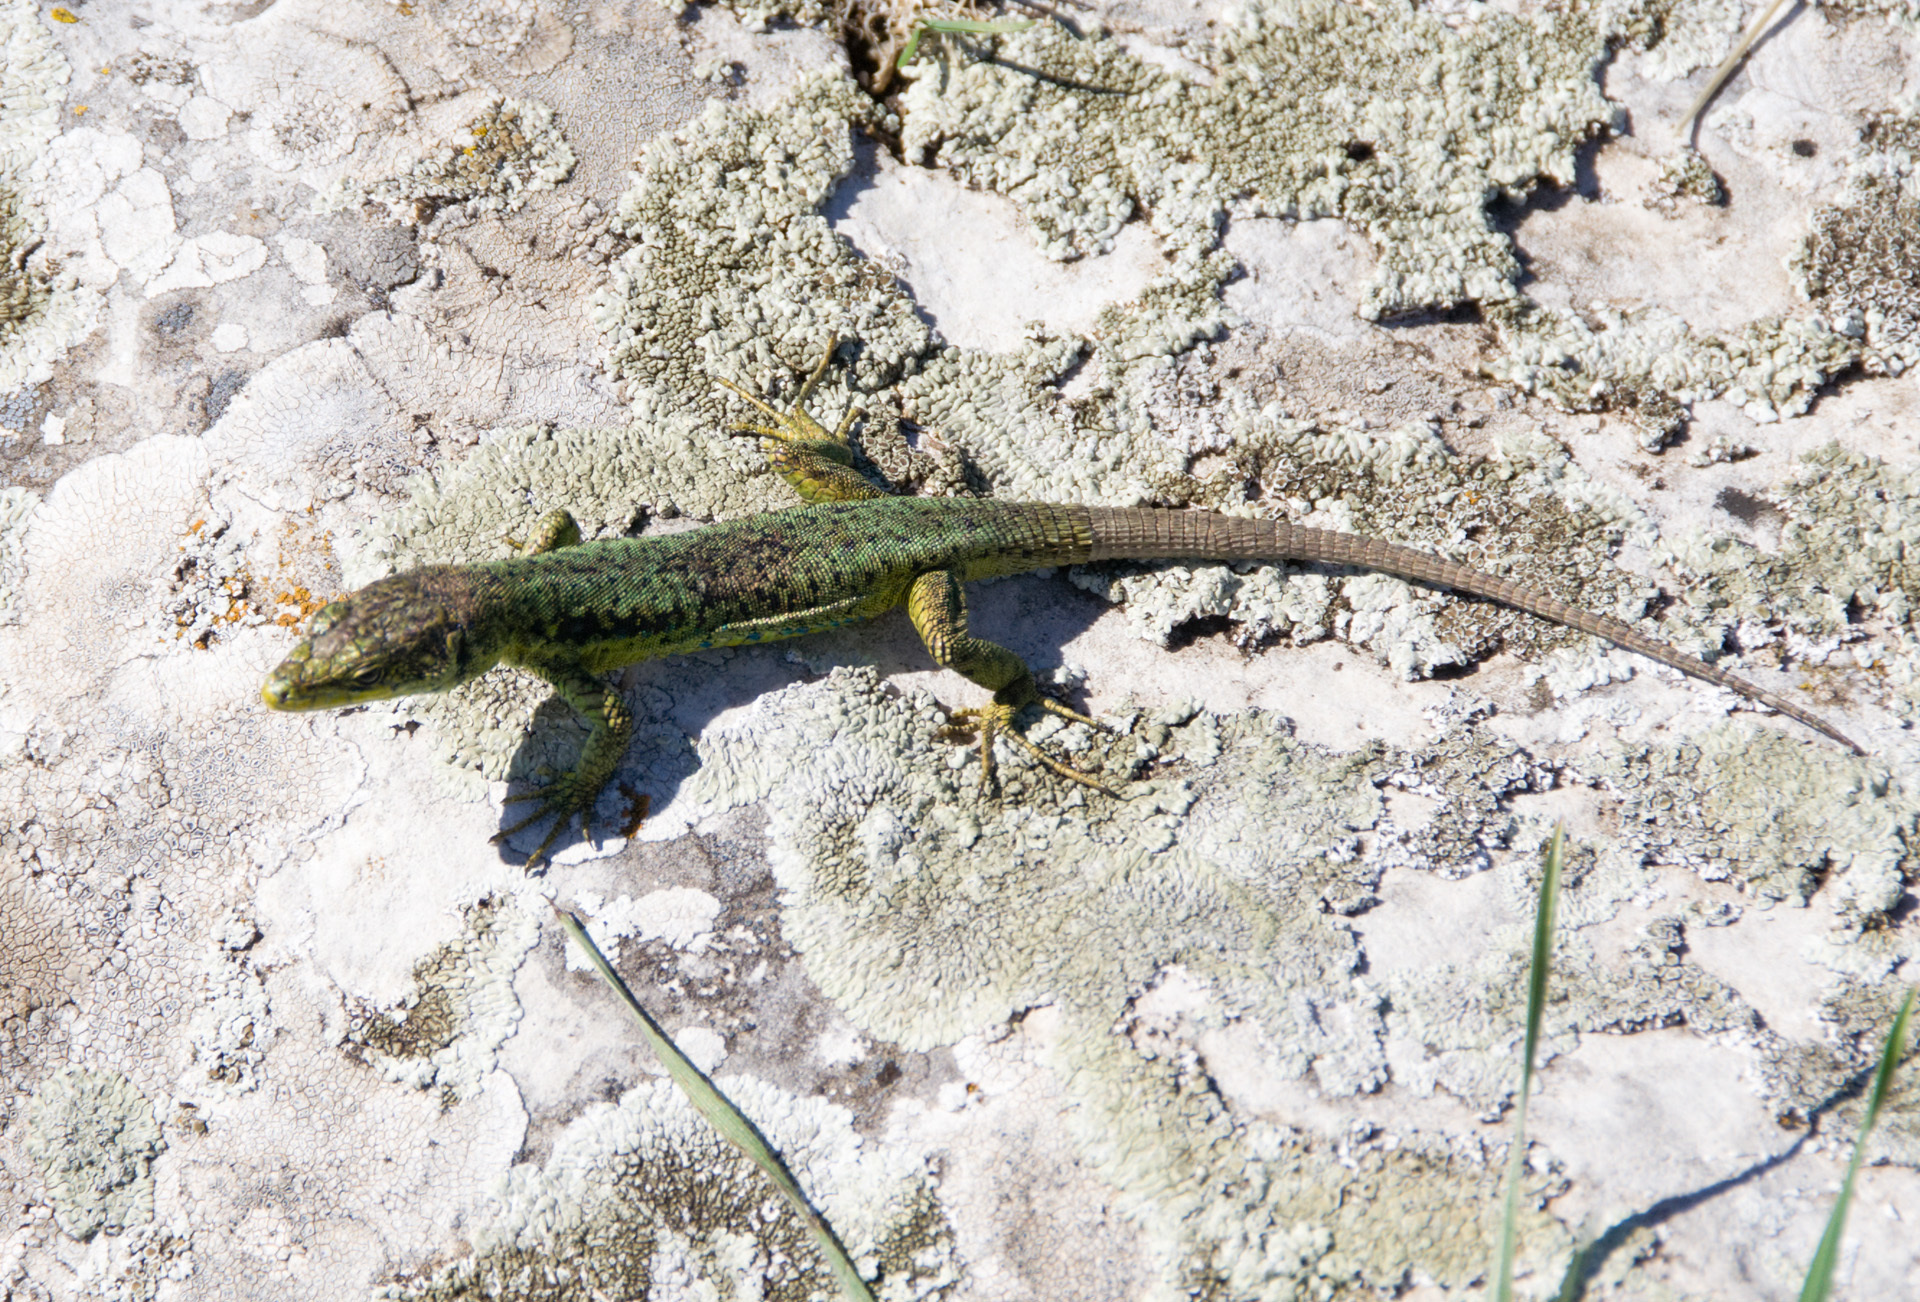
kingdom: Animalia
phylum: Chordata
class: Squamata
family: Lacertidae
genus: Darevskia
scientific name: Darevskia lindholmi
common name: Crimean rock lizard
